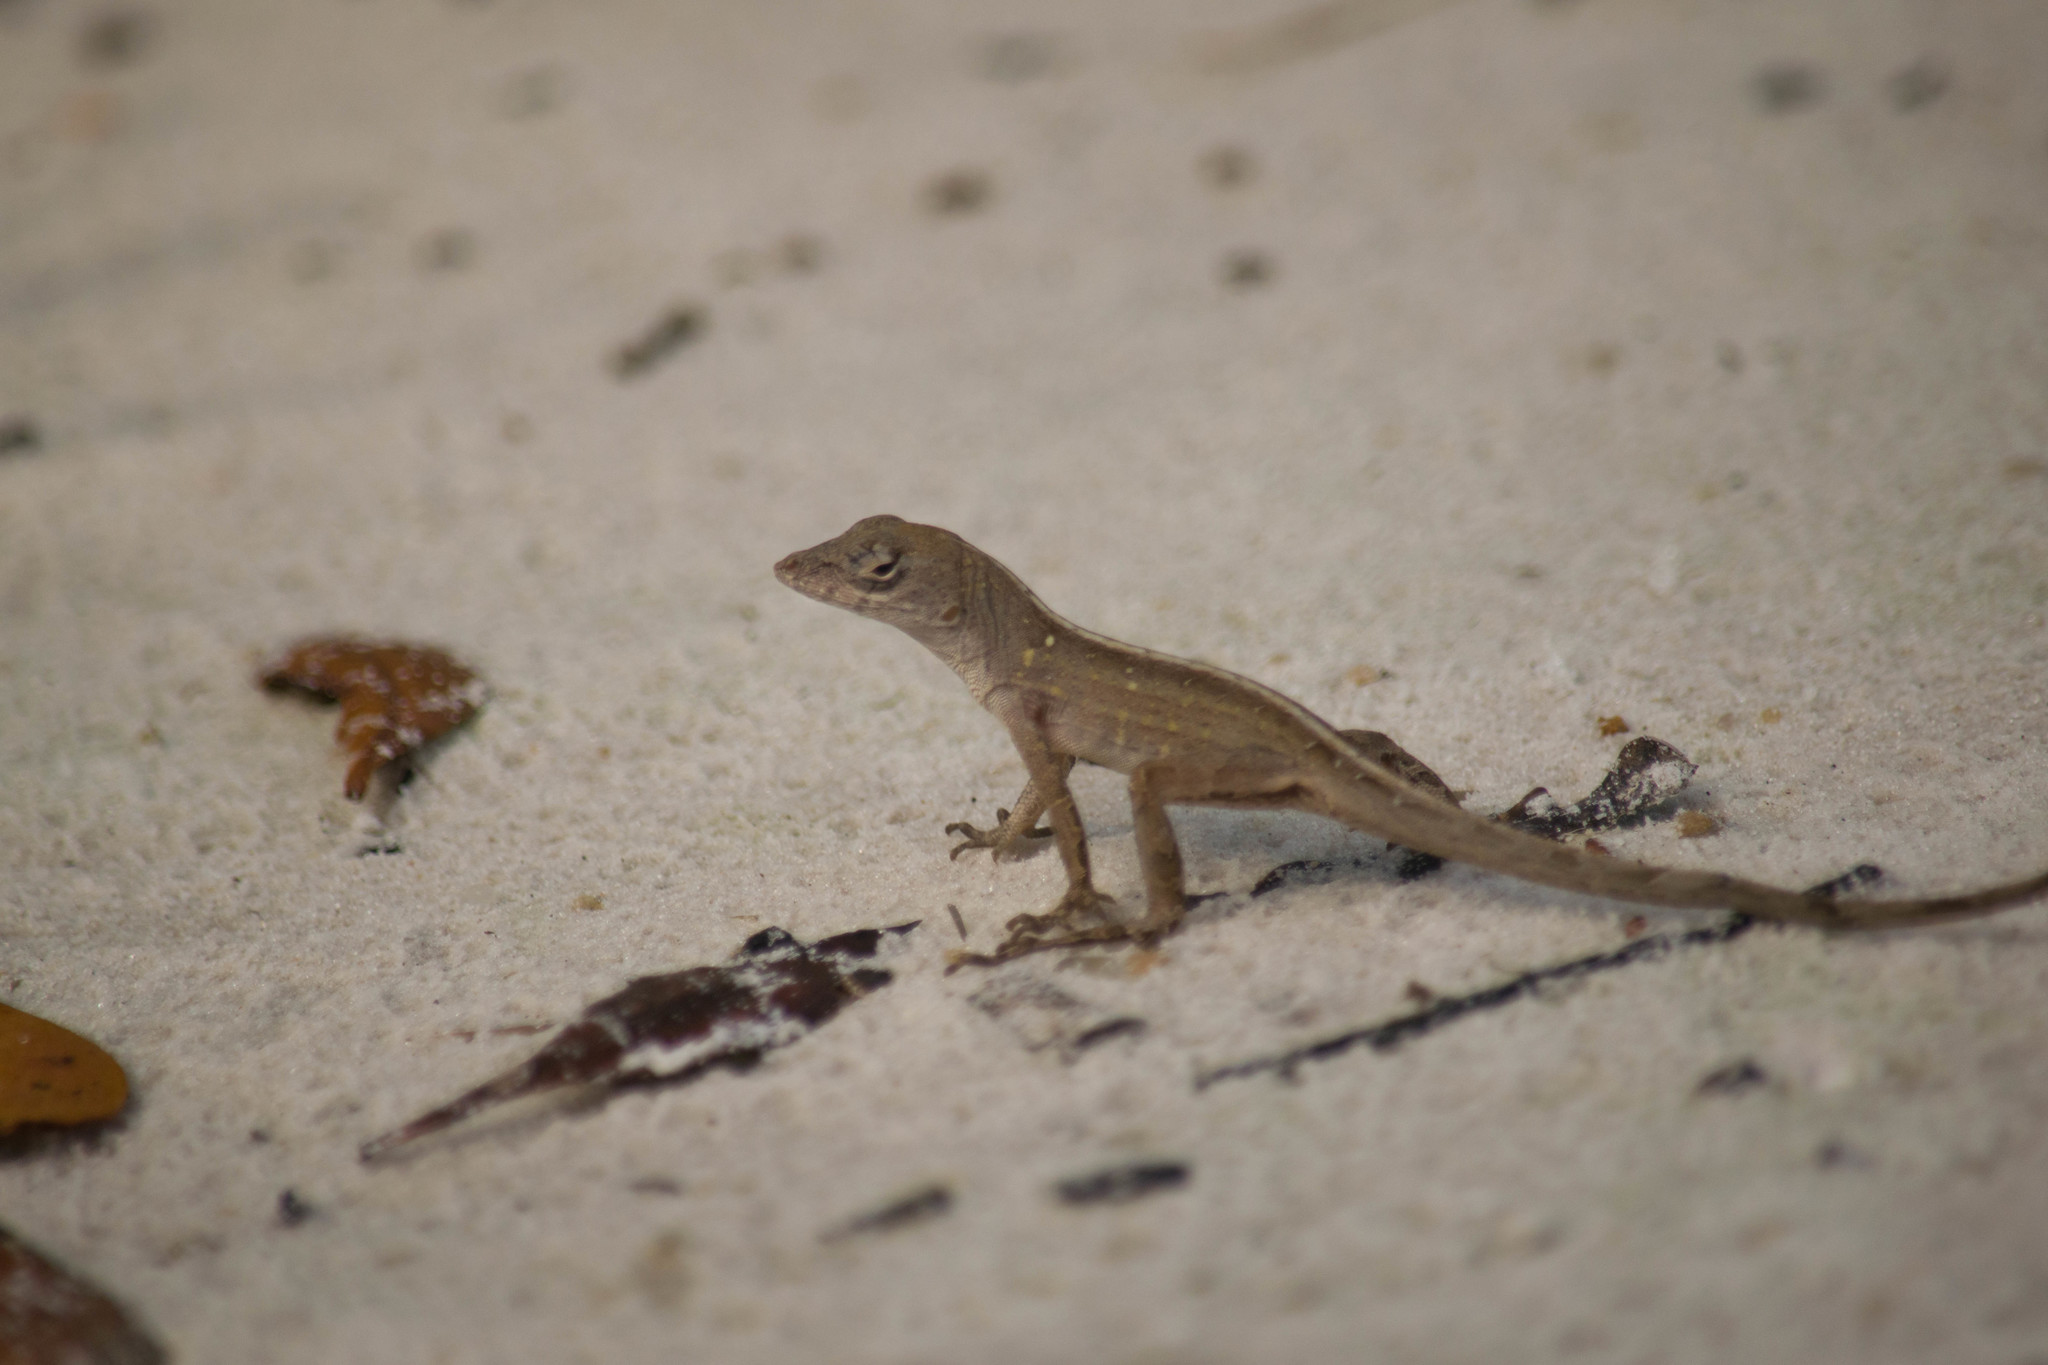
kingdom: Animalia
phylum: Chordata
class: Squamata
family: Dactyloidae
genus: Anolis
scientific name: Anolis sagrei
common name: Brown anole
